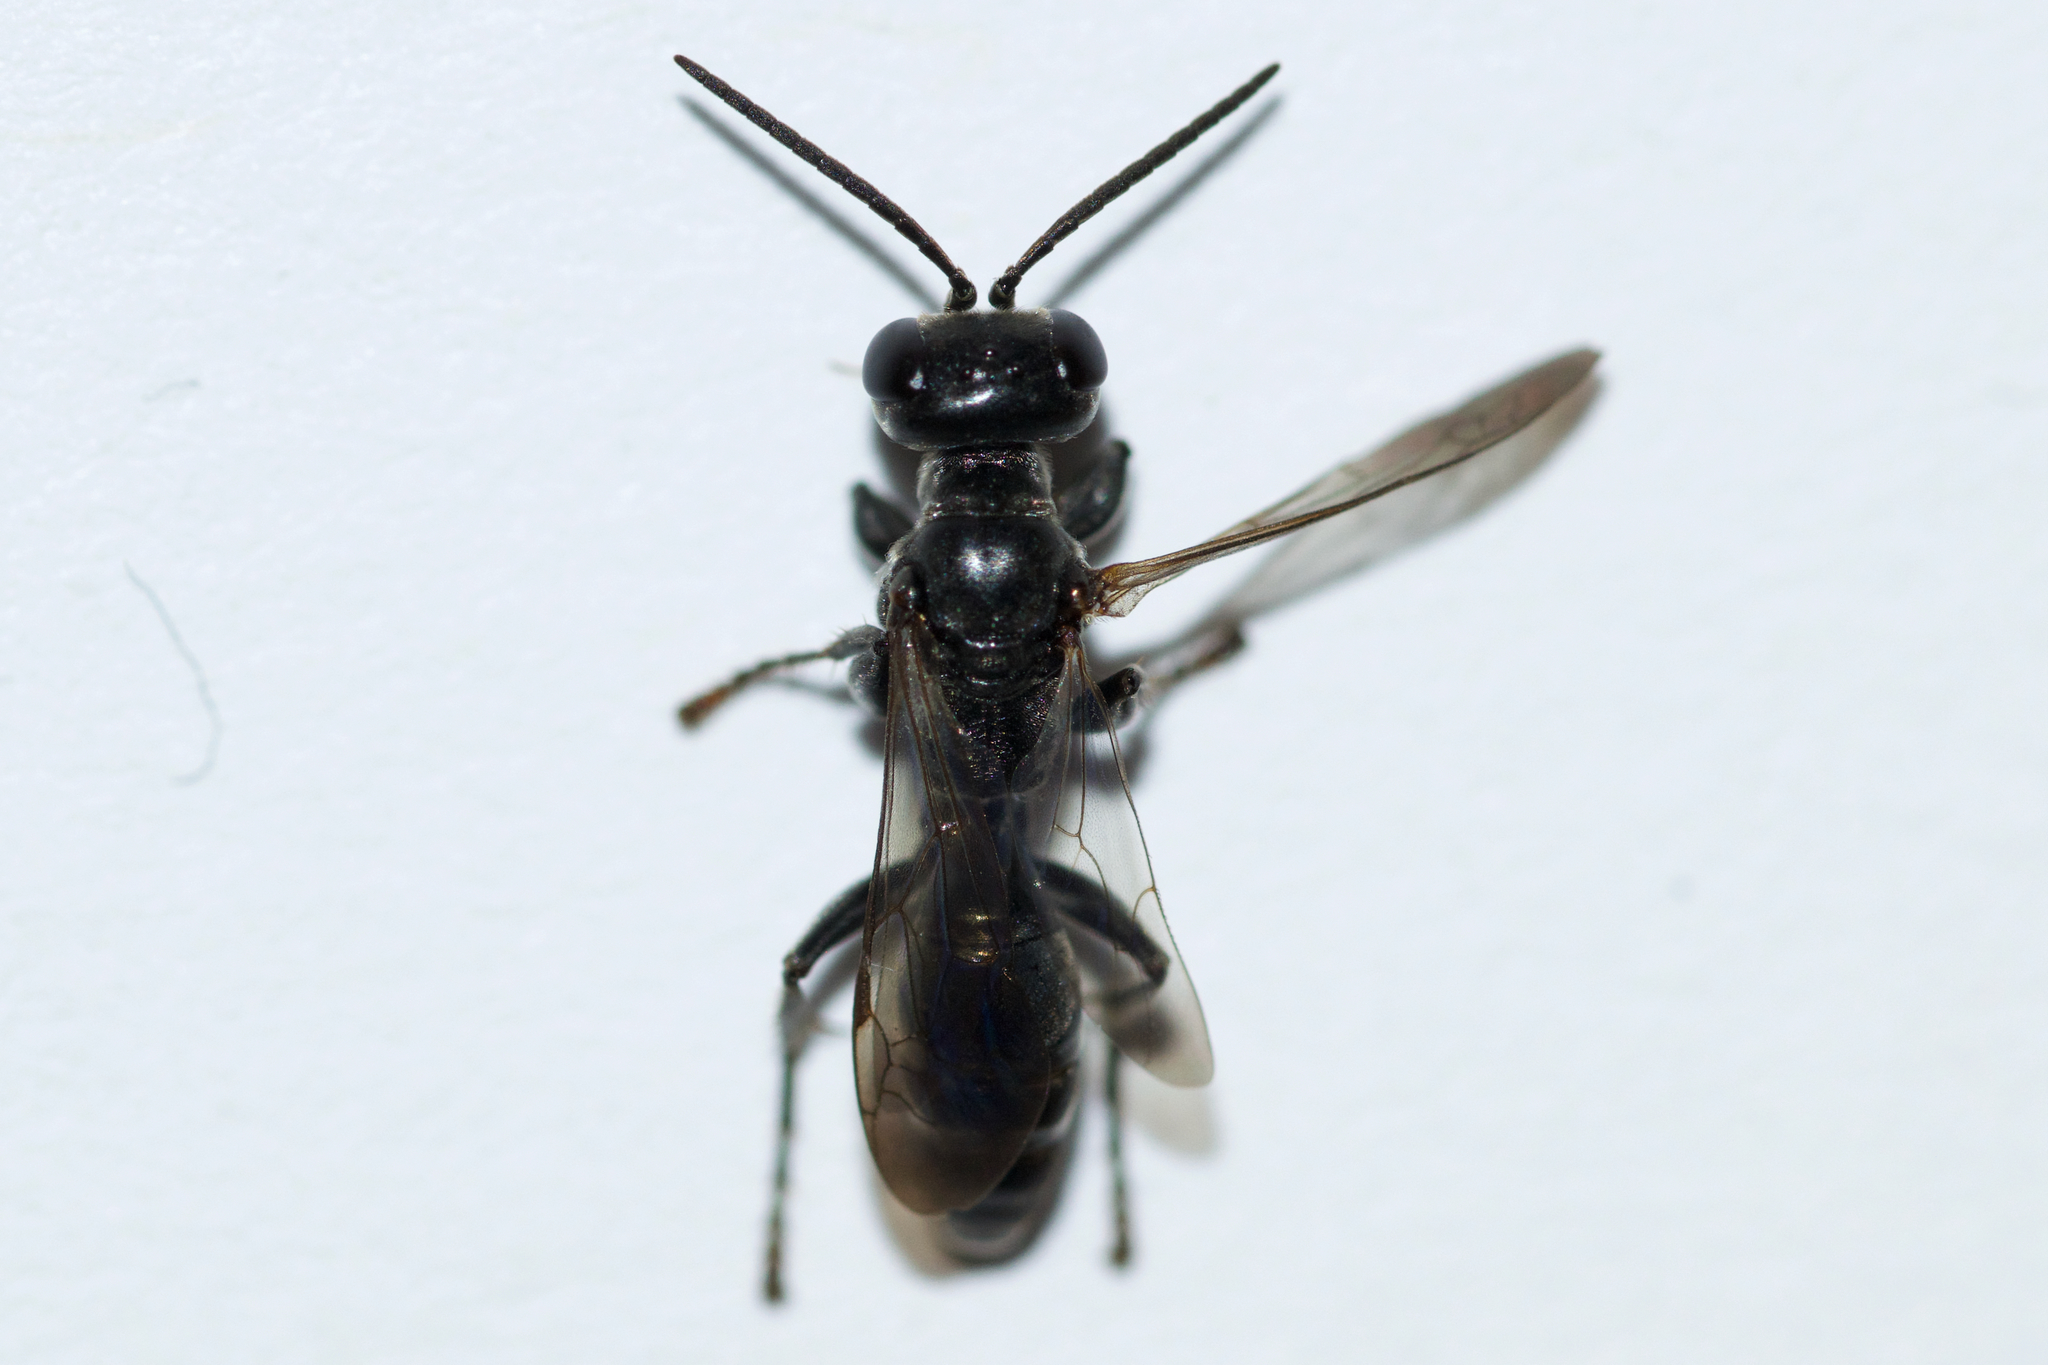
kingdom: Animalia
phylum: Arthropoda
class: Insecta
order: Hymenoptera
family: Crabronidae
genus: Lyroda
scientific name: Lyroda subita
